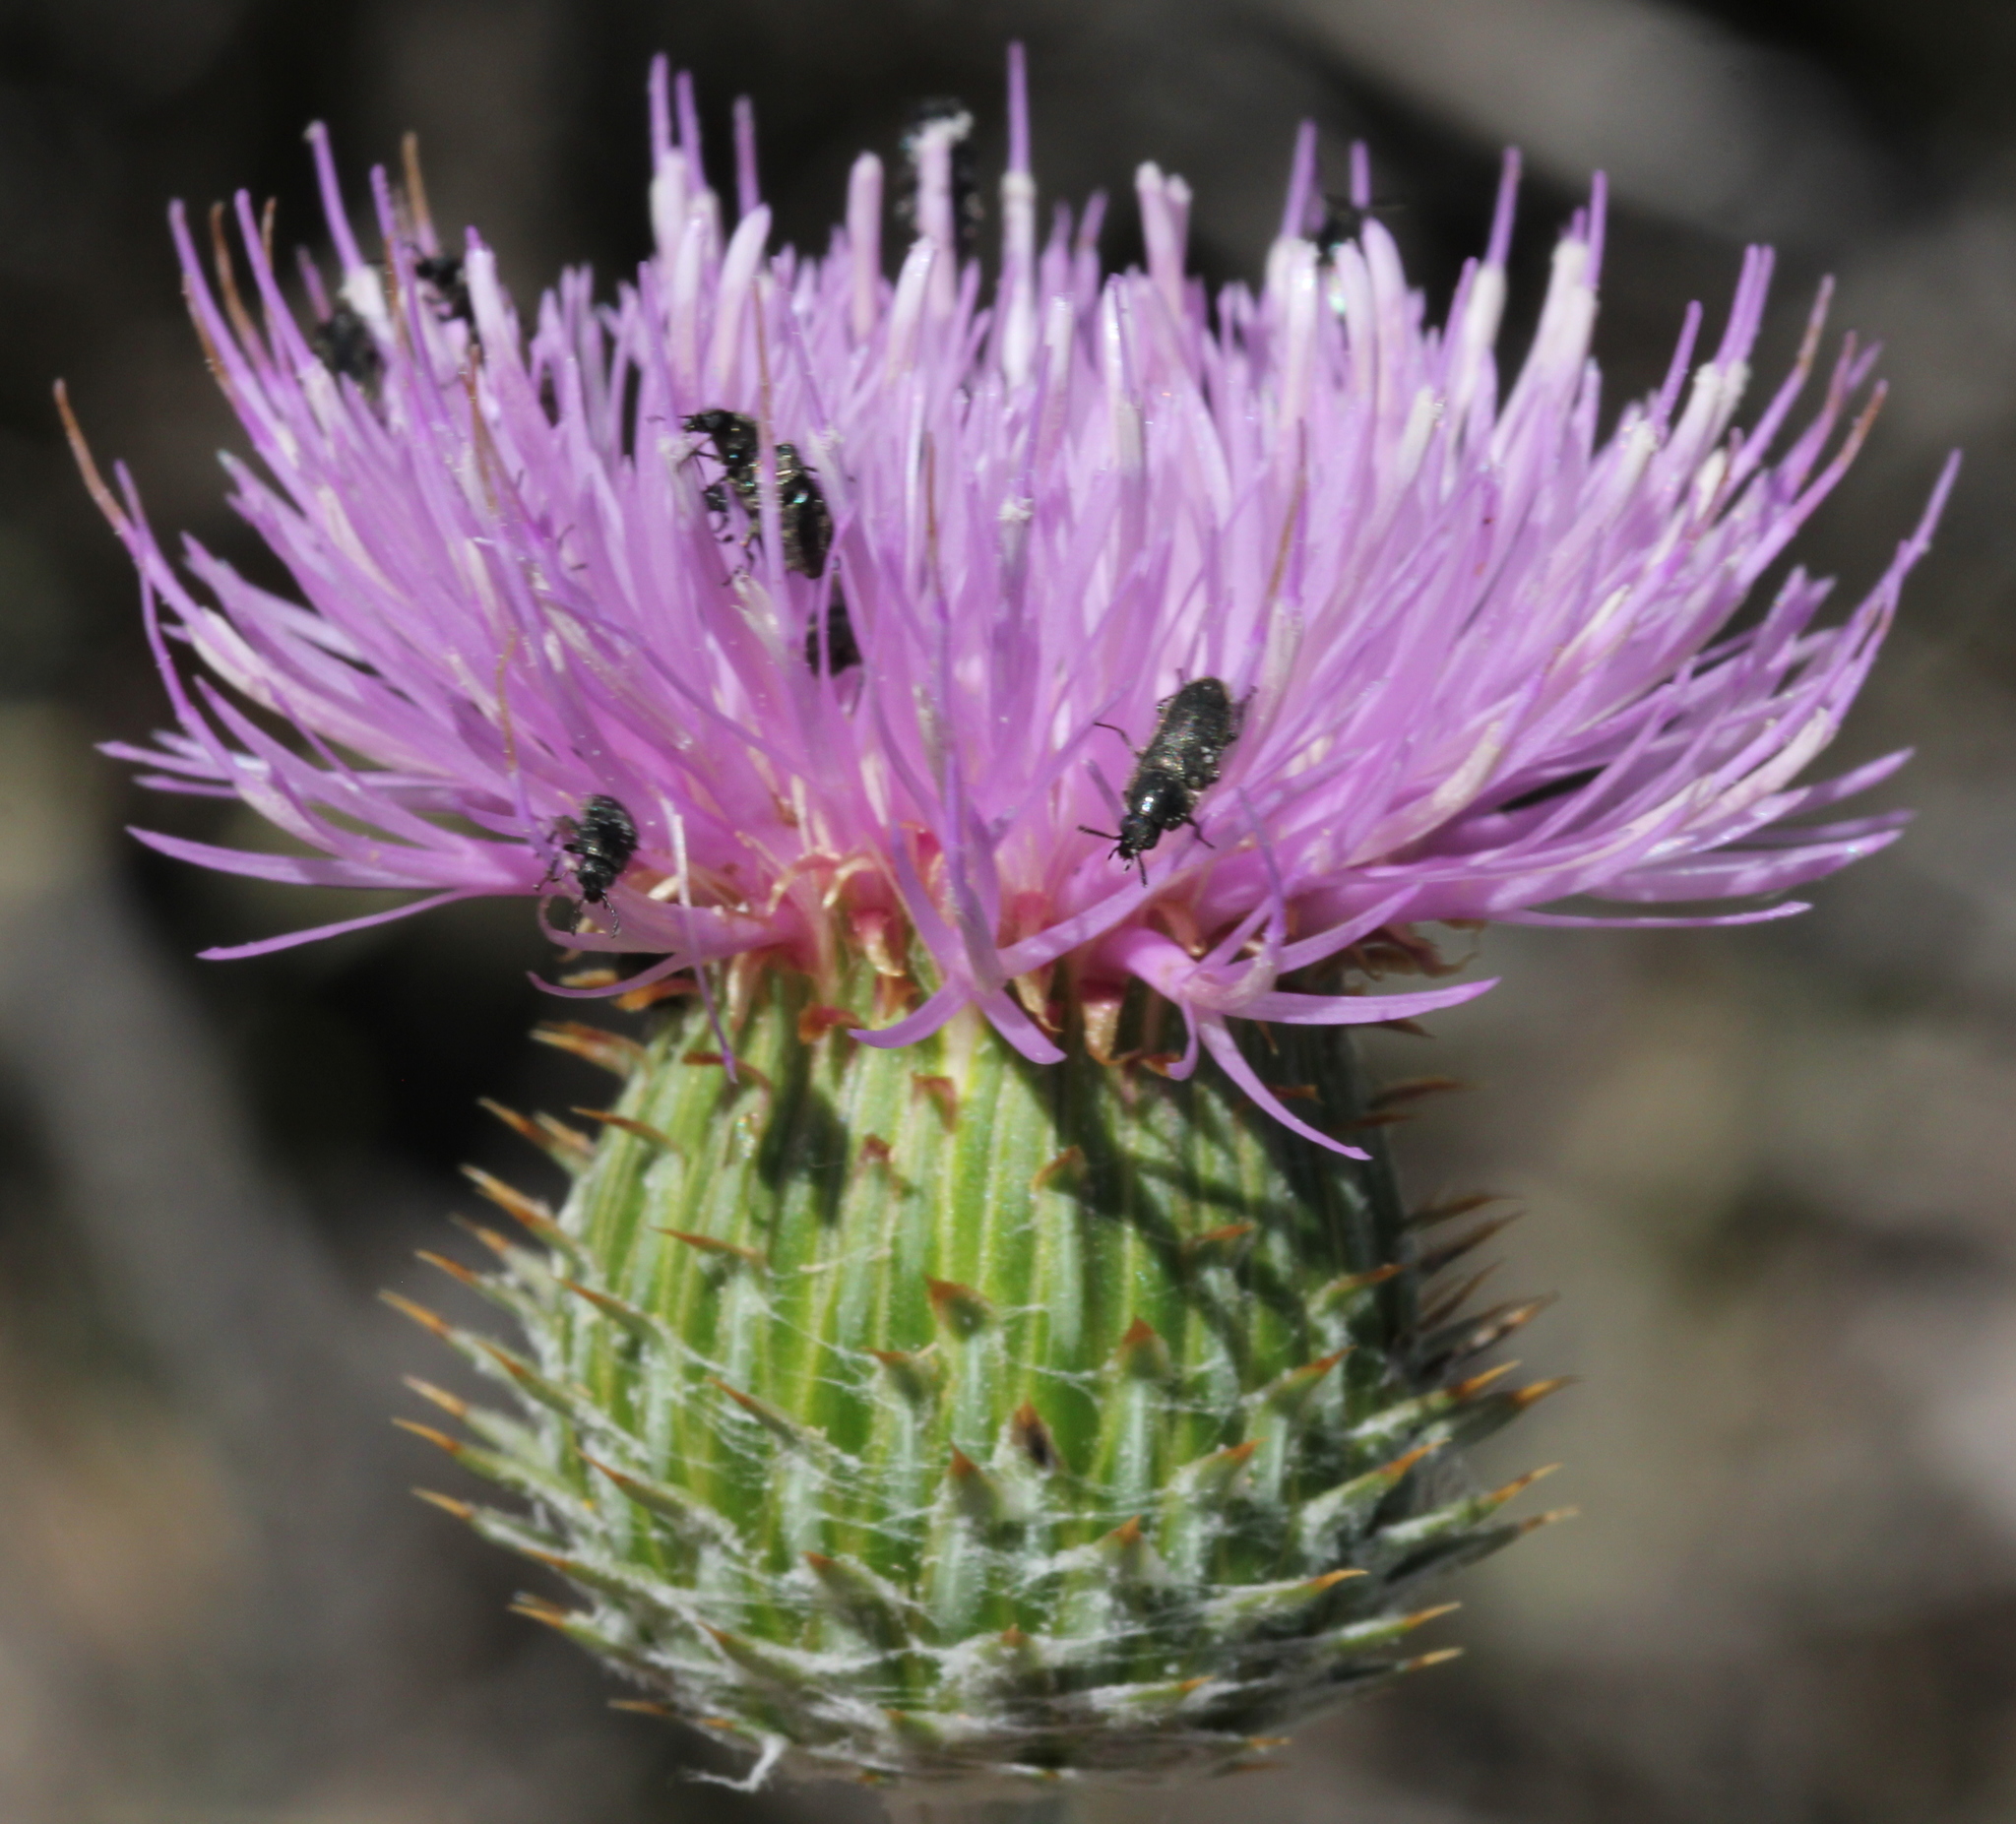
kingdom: Plantae
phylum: Tracheophyta
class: Magnoliopsida
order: Asterales
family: Asteraceae
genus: Cirsium
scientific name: Cirsium occidentale
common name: Western thistle
